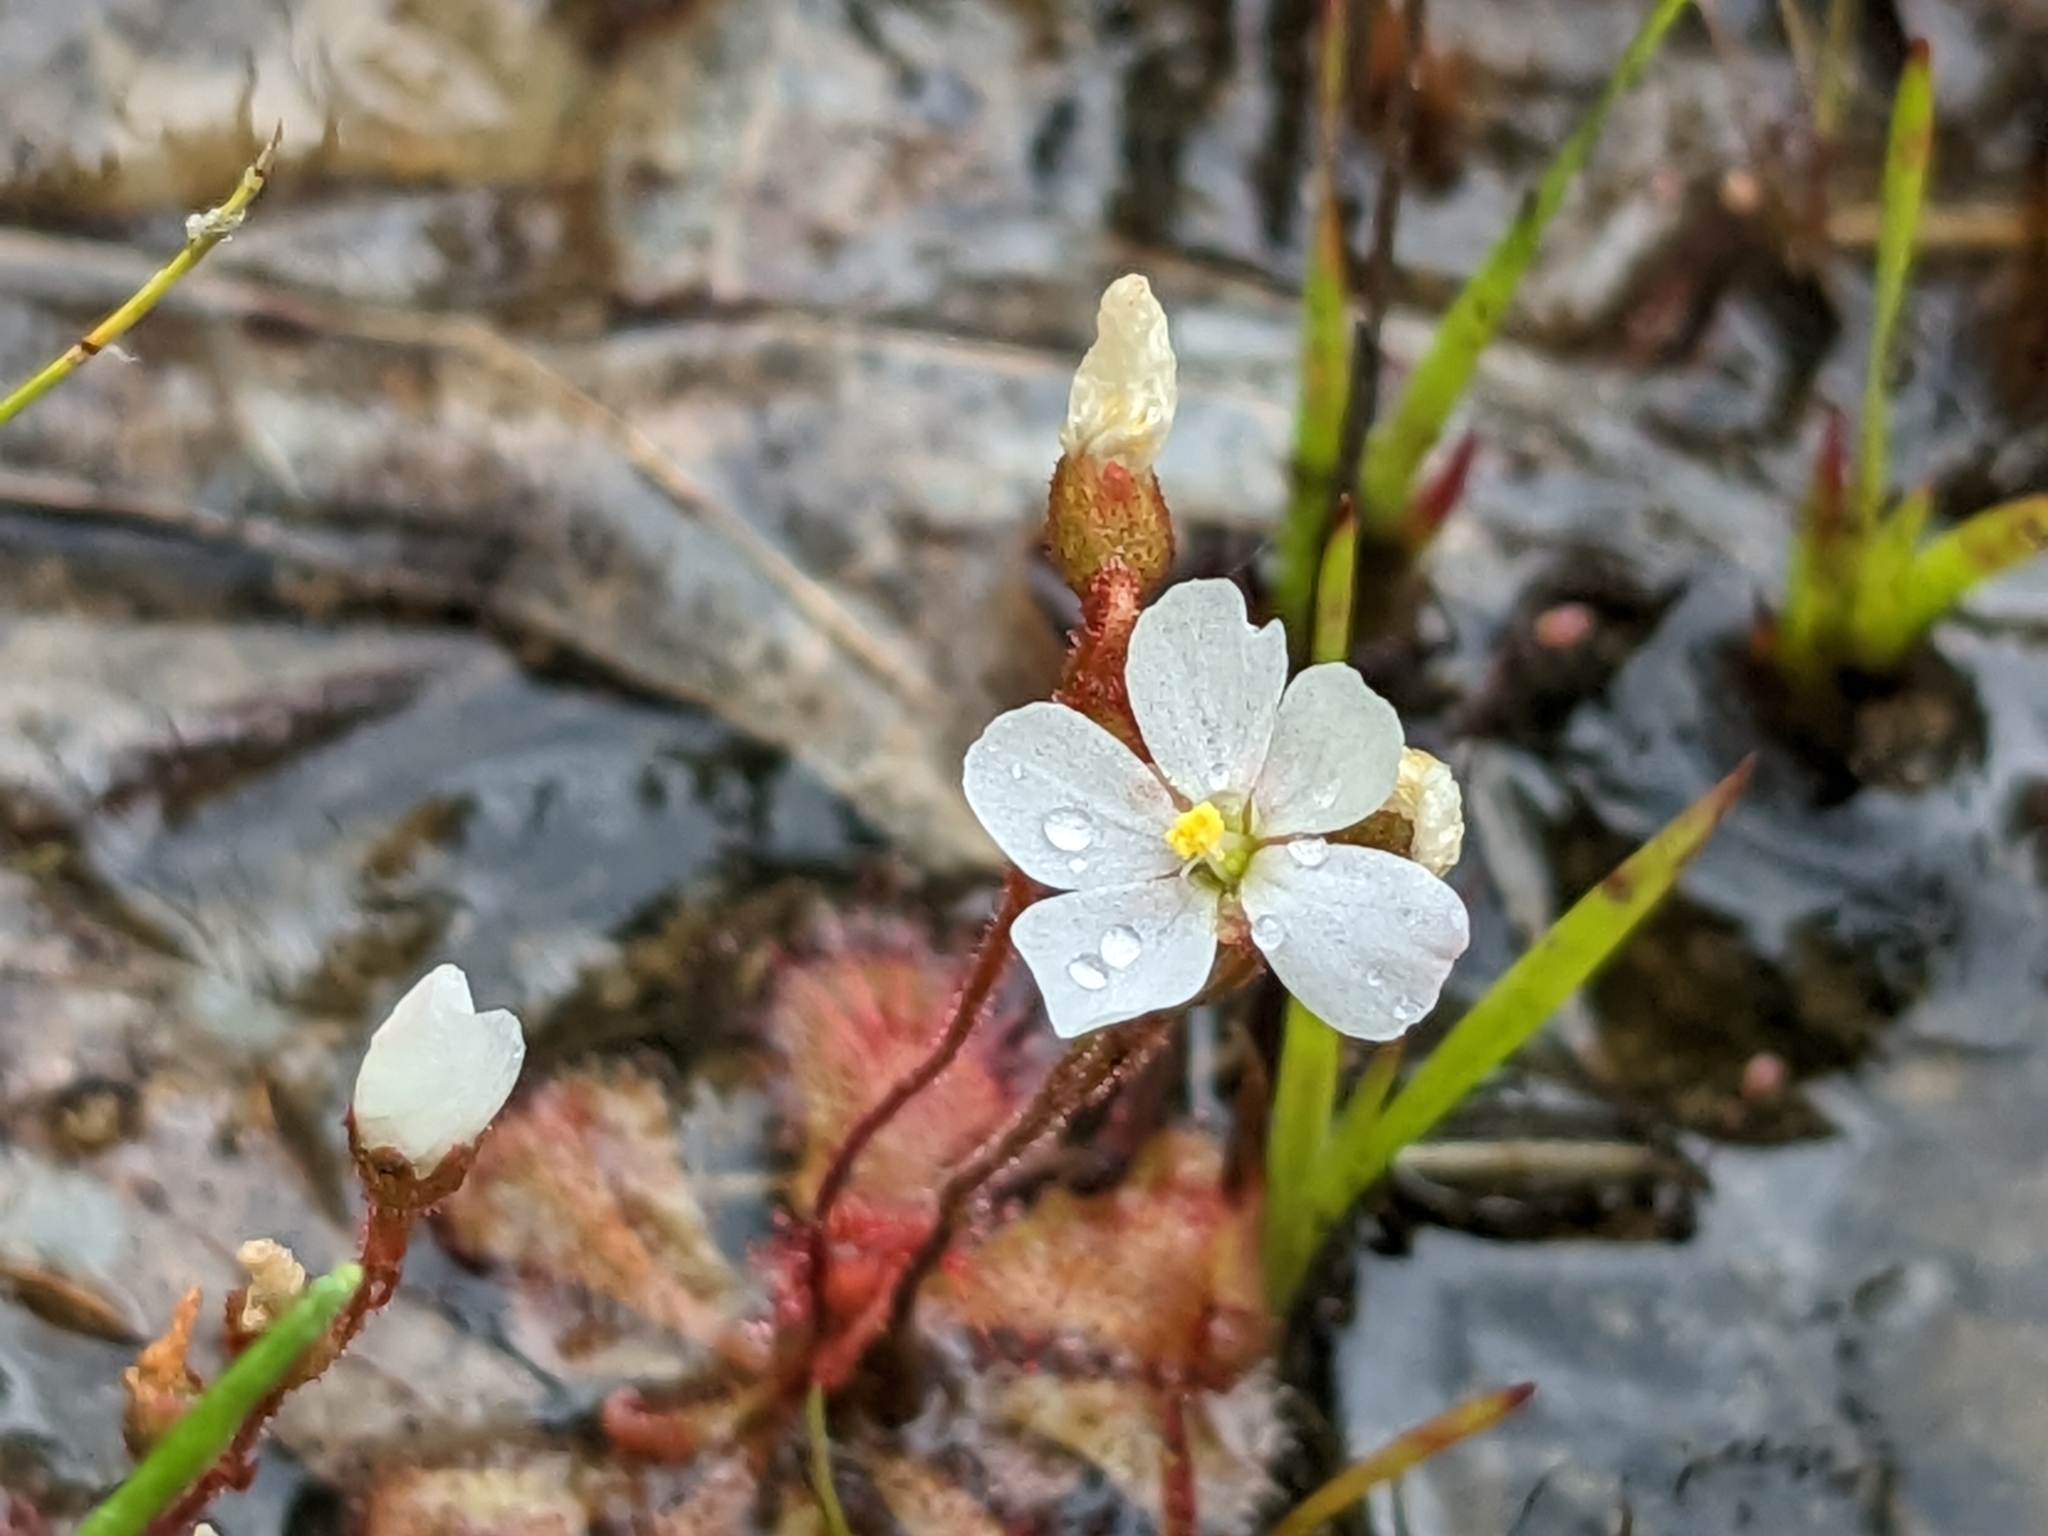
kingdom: Plantae
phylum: Tracheophyta
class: Magnoliopsida
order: Caryophyllales
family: Droseraceae
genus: Drosera
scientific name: Drosera brevifolia
